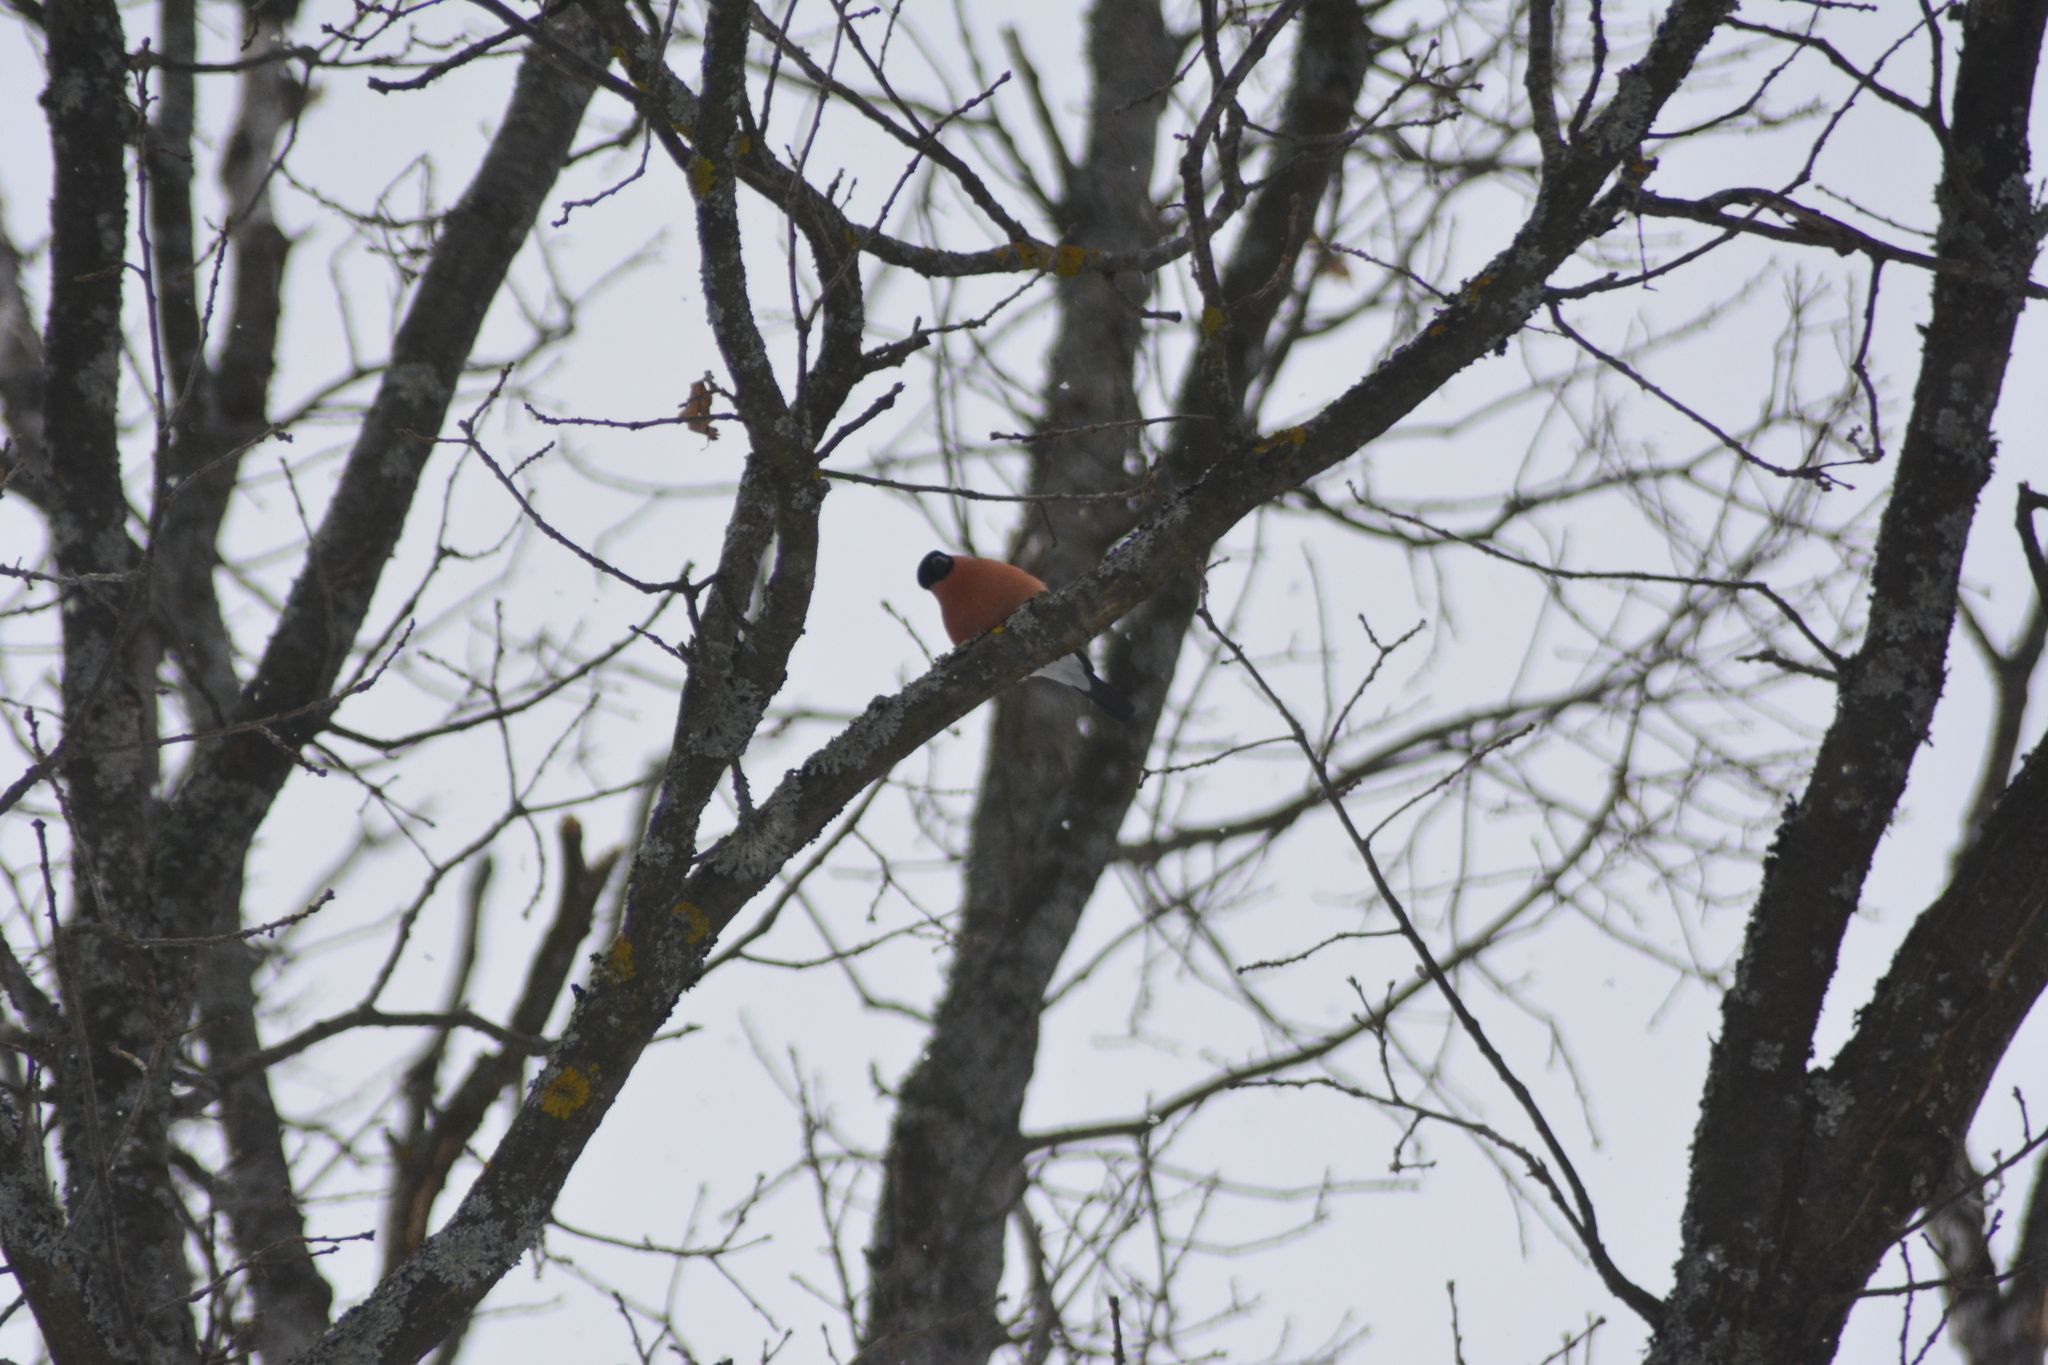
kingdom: Animalia
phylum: Chordata
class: Aves
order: Passeriformes
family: Fringillidae
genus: Pyrrhula
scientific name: Pyrrhula pyrrhula
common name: Eurasian bullfinch
